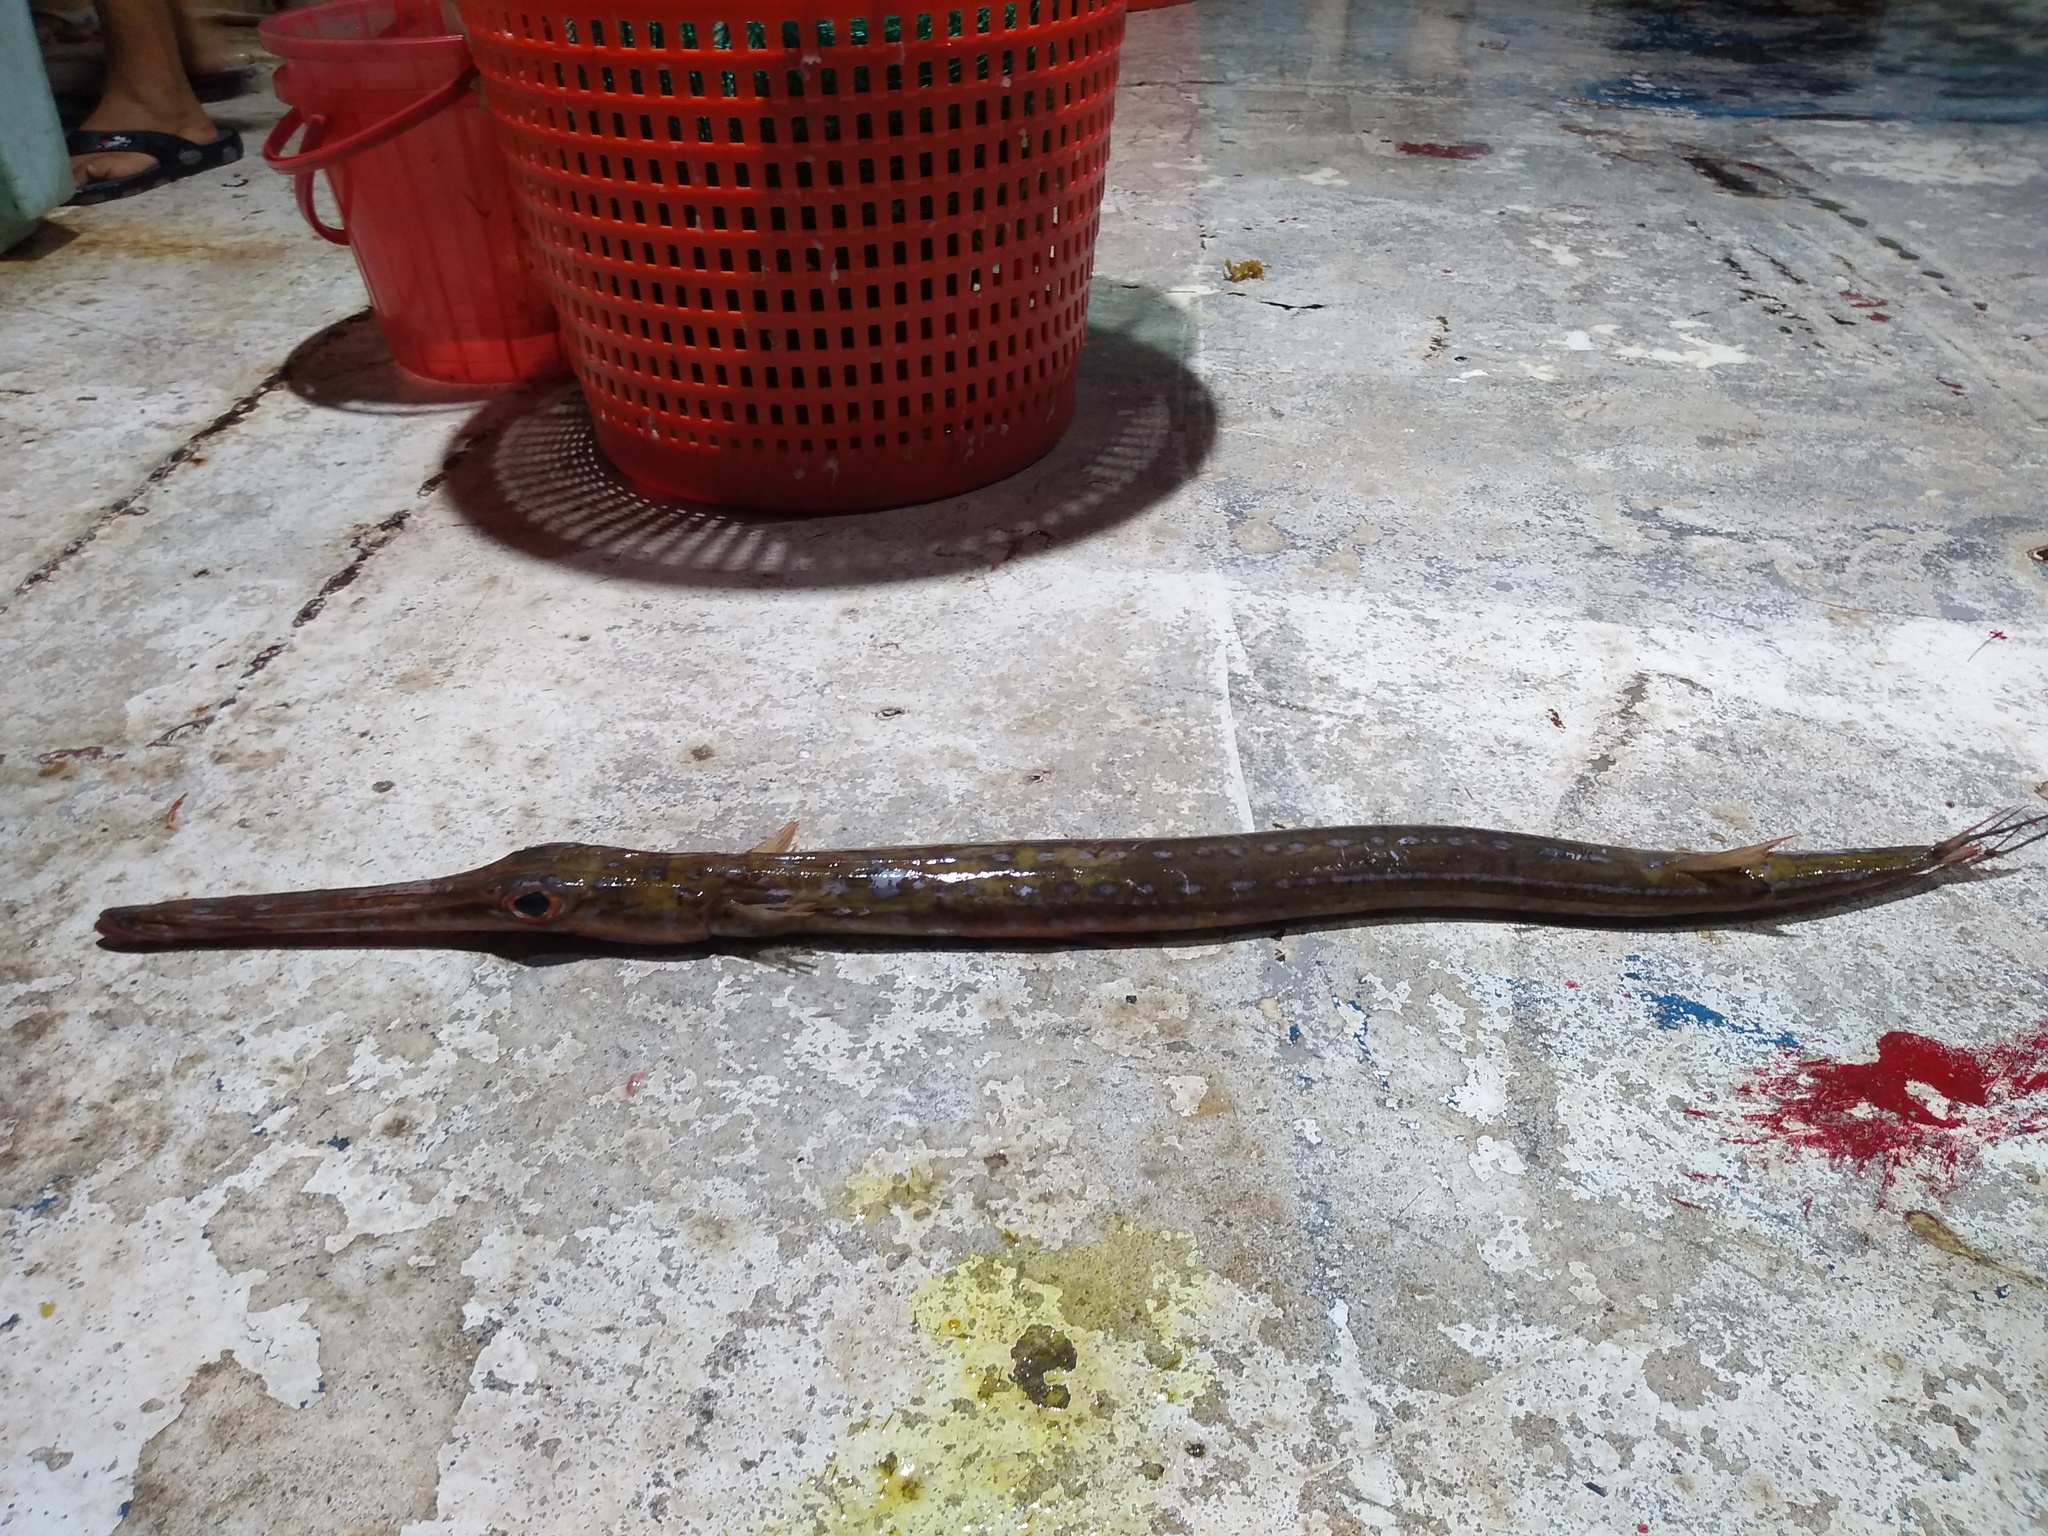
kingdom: Animalia
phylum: Chordata
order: Syngnathiformes
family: Fistulariidae
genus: Fistularia
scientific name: Fistularia tabacaria
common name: Blue-spotted cornetfish
